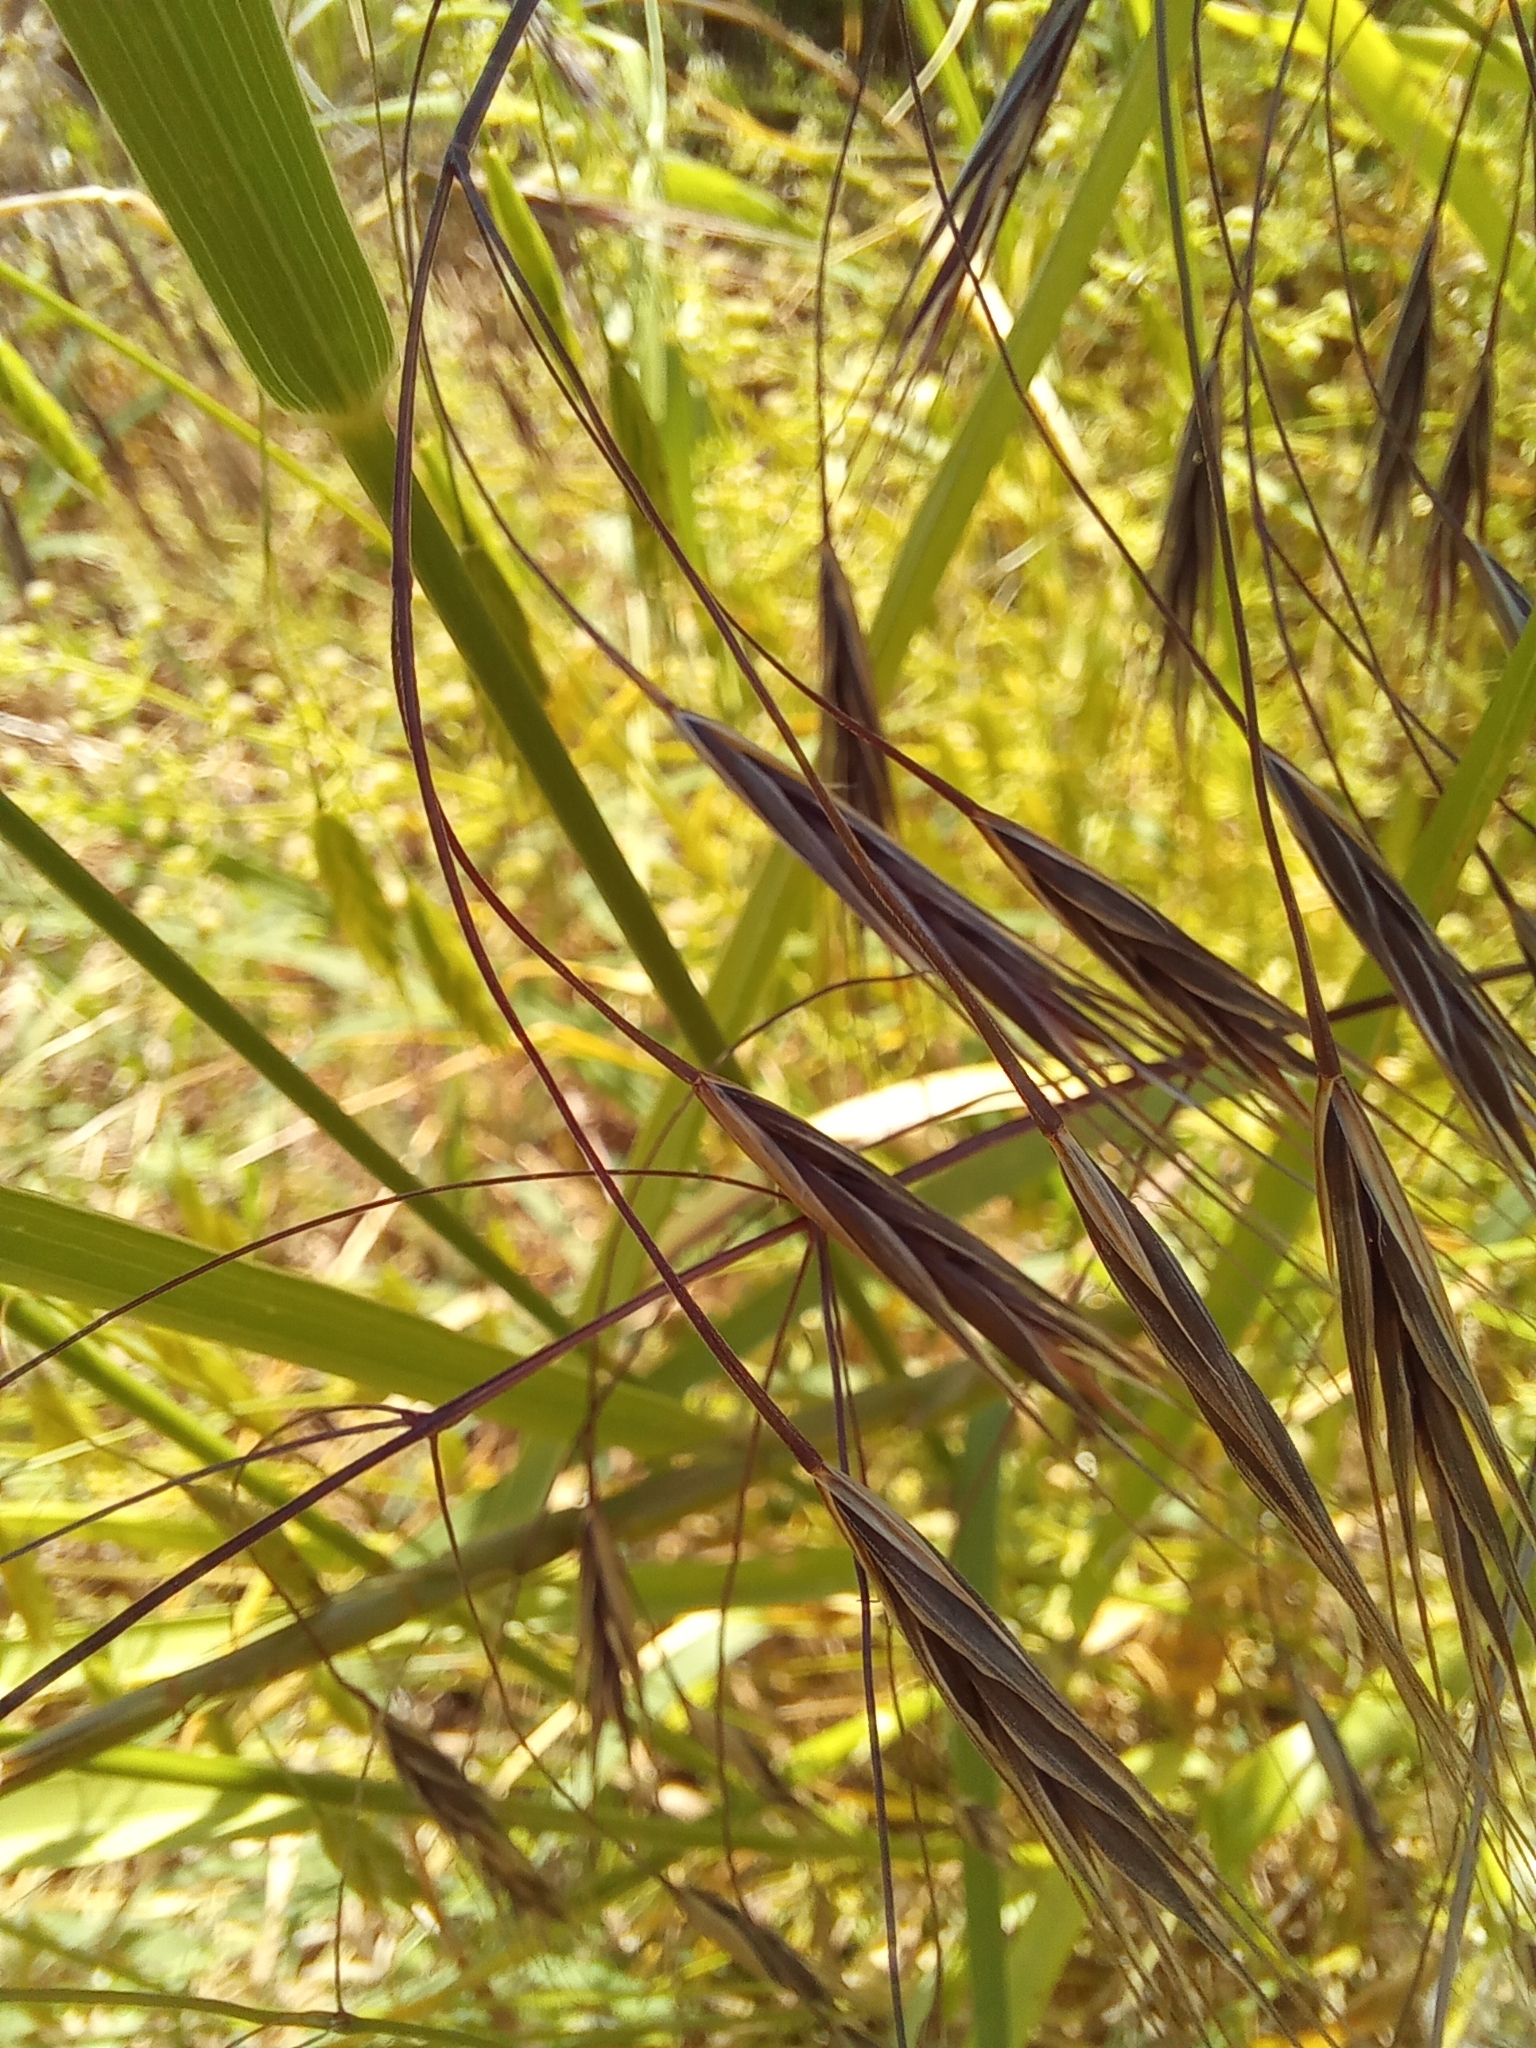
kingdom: Plantae
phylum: Tracheophyta
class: Liliopsida
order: Poales
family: Poaceae
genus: Bromus
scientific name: Bromus sterilis
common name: Poverty brome
